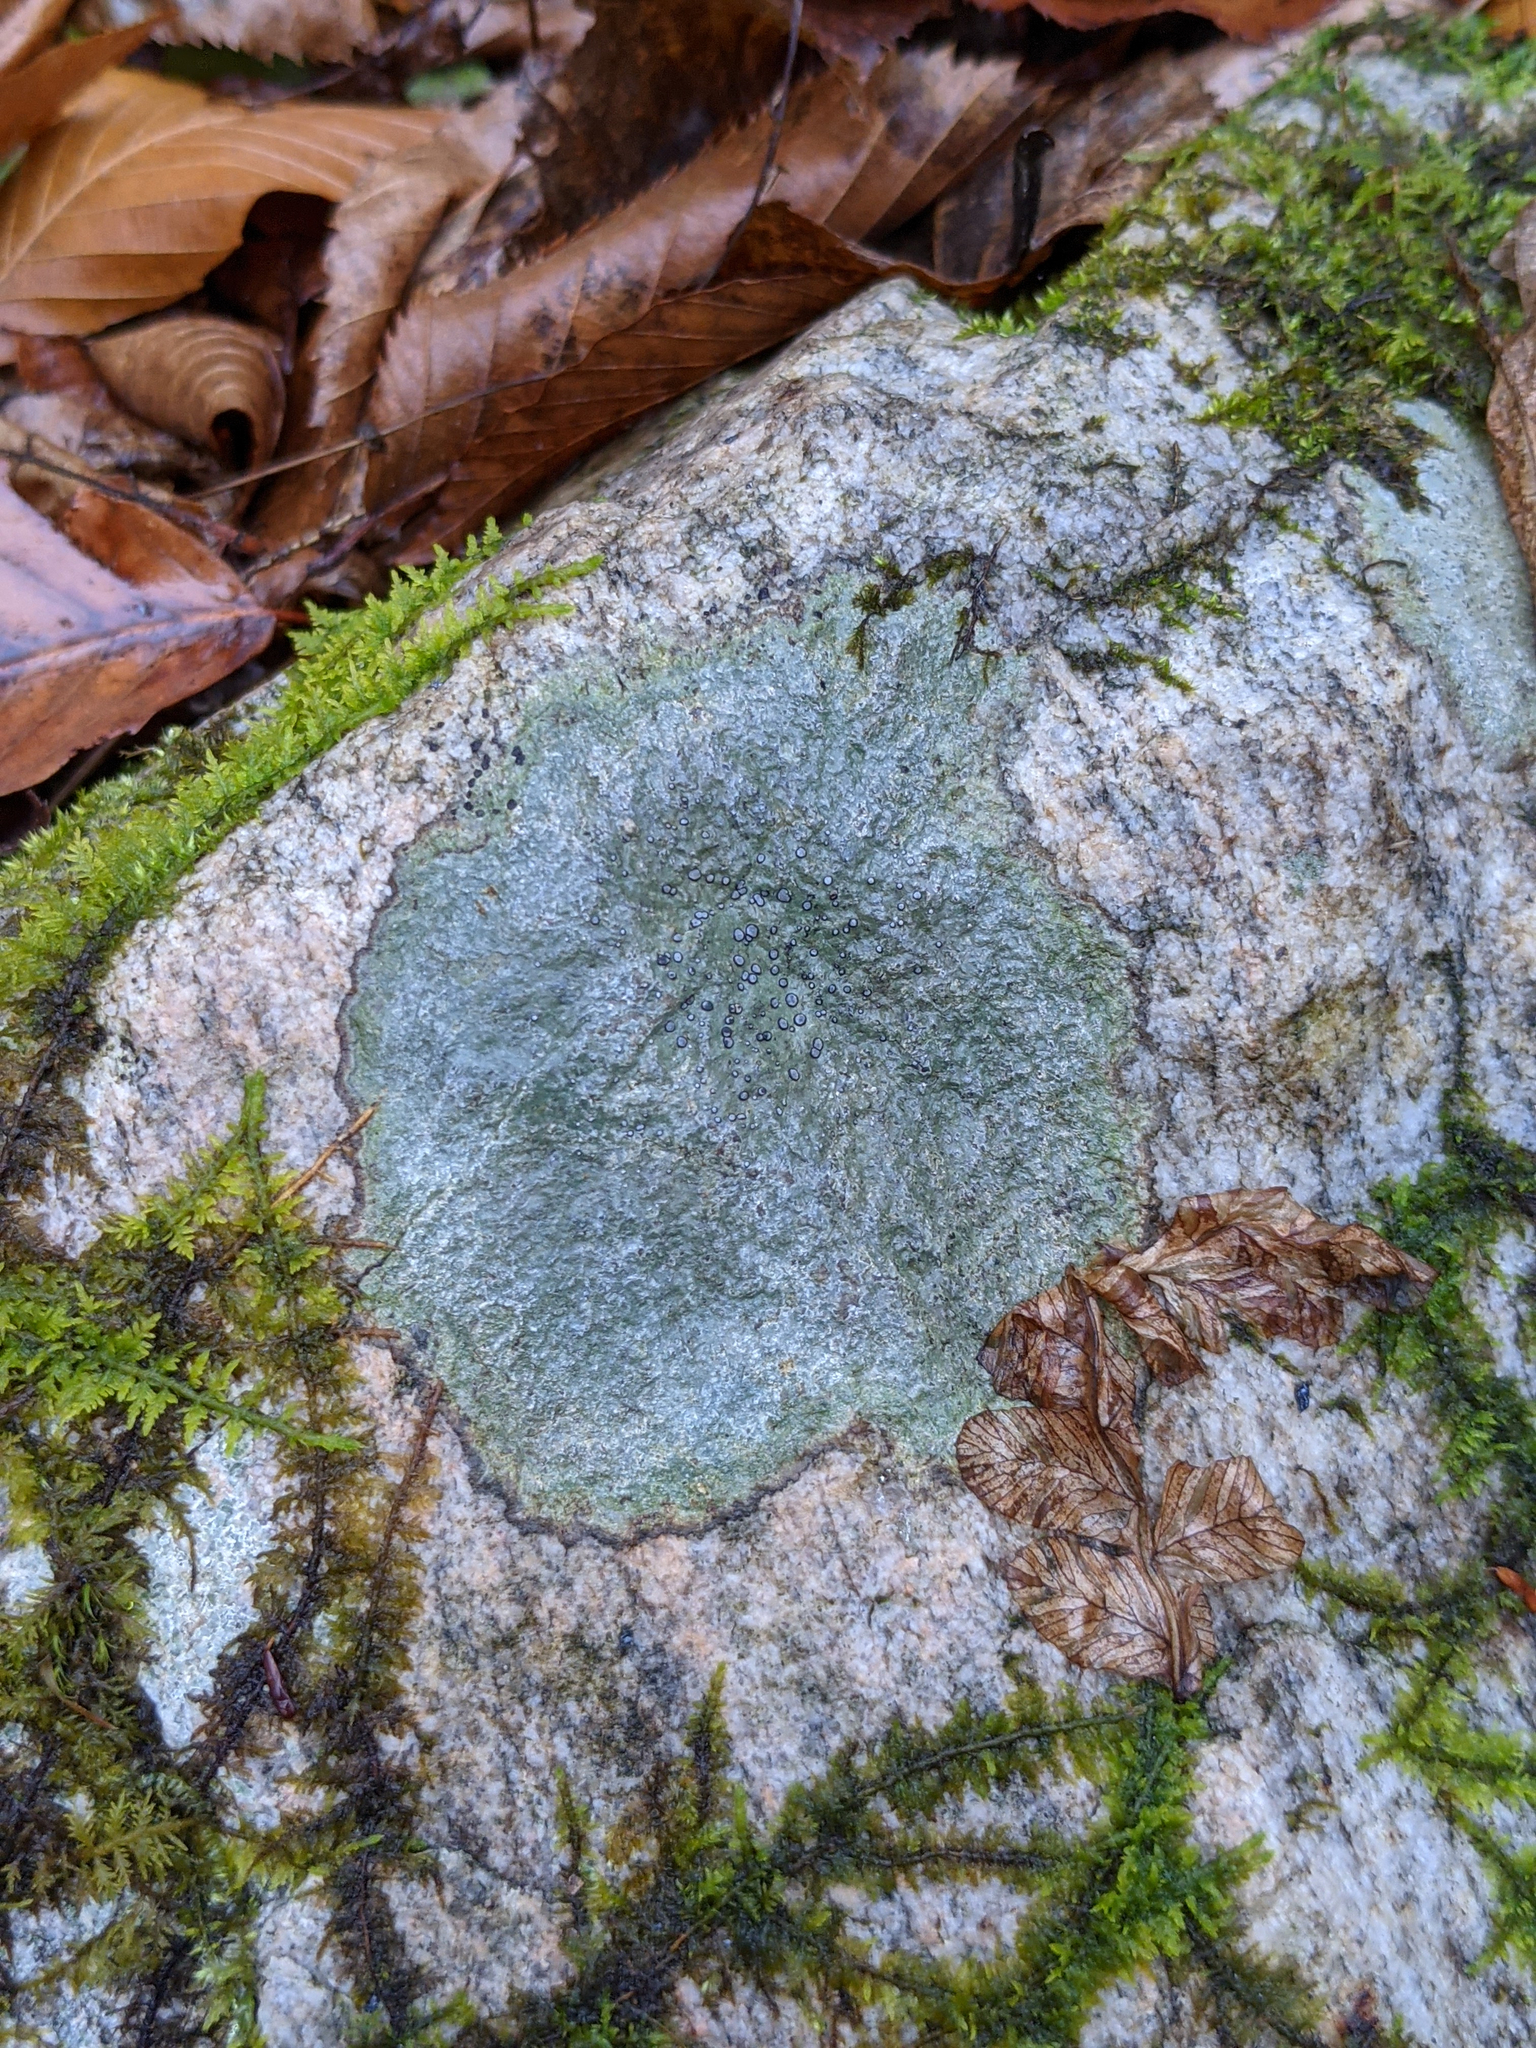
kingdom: Fungi
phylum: Ascomycota
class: Lecanoromycetes
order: Lecideales
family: Lecideaceae
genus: Porpidia
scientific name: Porpidia albocaerulescens
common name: Smokey-eyed boulder lichen
